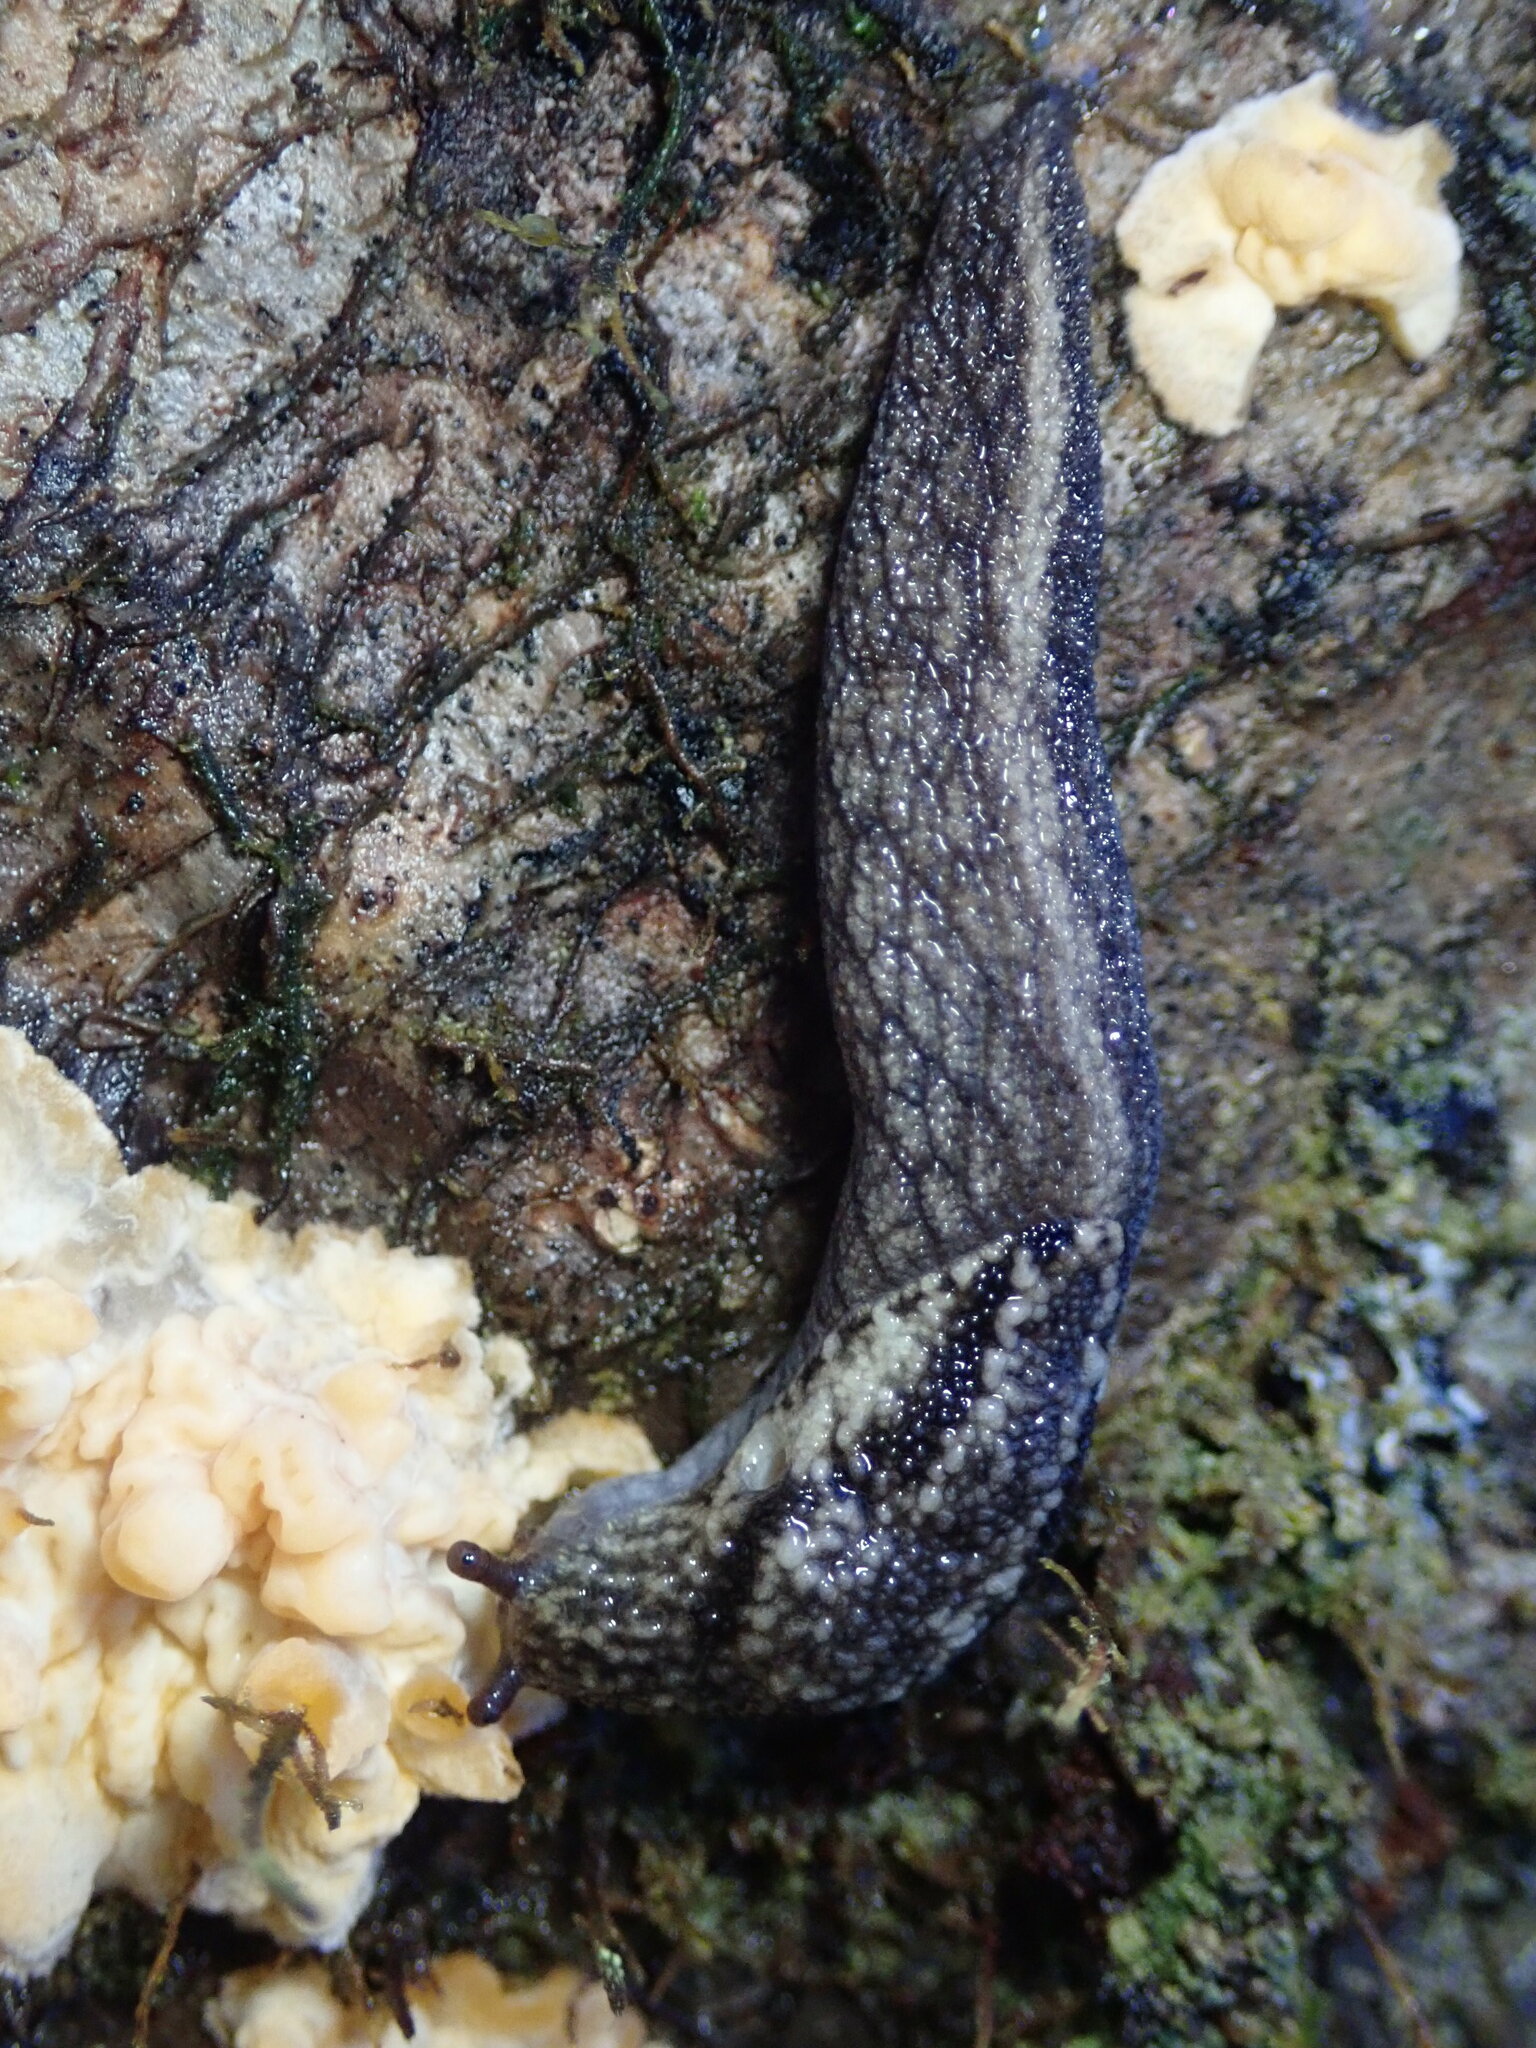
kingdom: Animalia
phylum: Mollusca
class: Gastropoda
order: Stylommatophora
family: Ariolimacidae
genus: Prophysaon
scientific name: Prophysaon andersonii
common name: Reticulate taildropper
